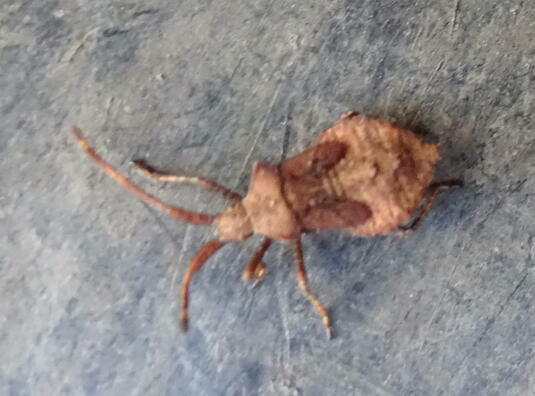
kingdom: Animalia
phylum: Arthropoda
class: Insecta
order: Hemiptera
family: Coreidae
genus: Coreus
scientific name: Coreus marginatus
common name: Dock bug
